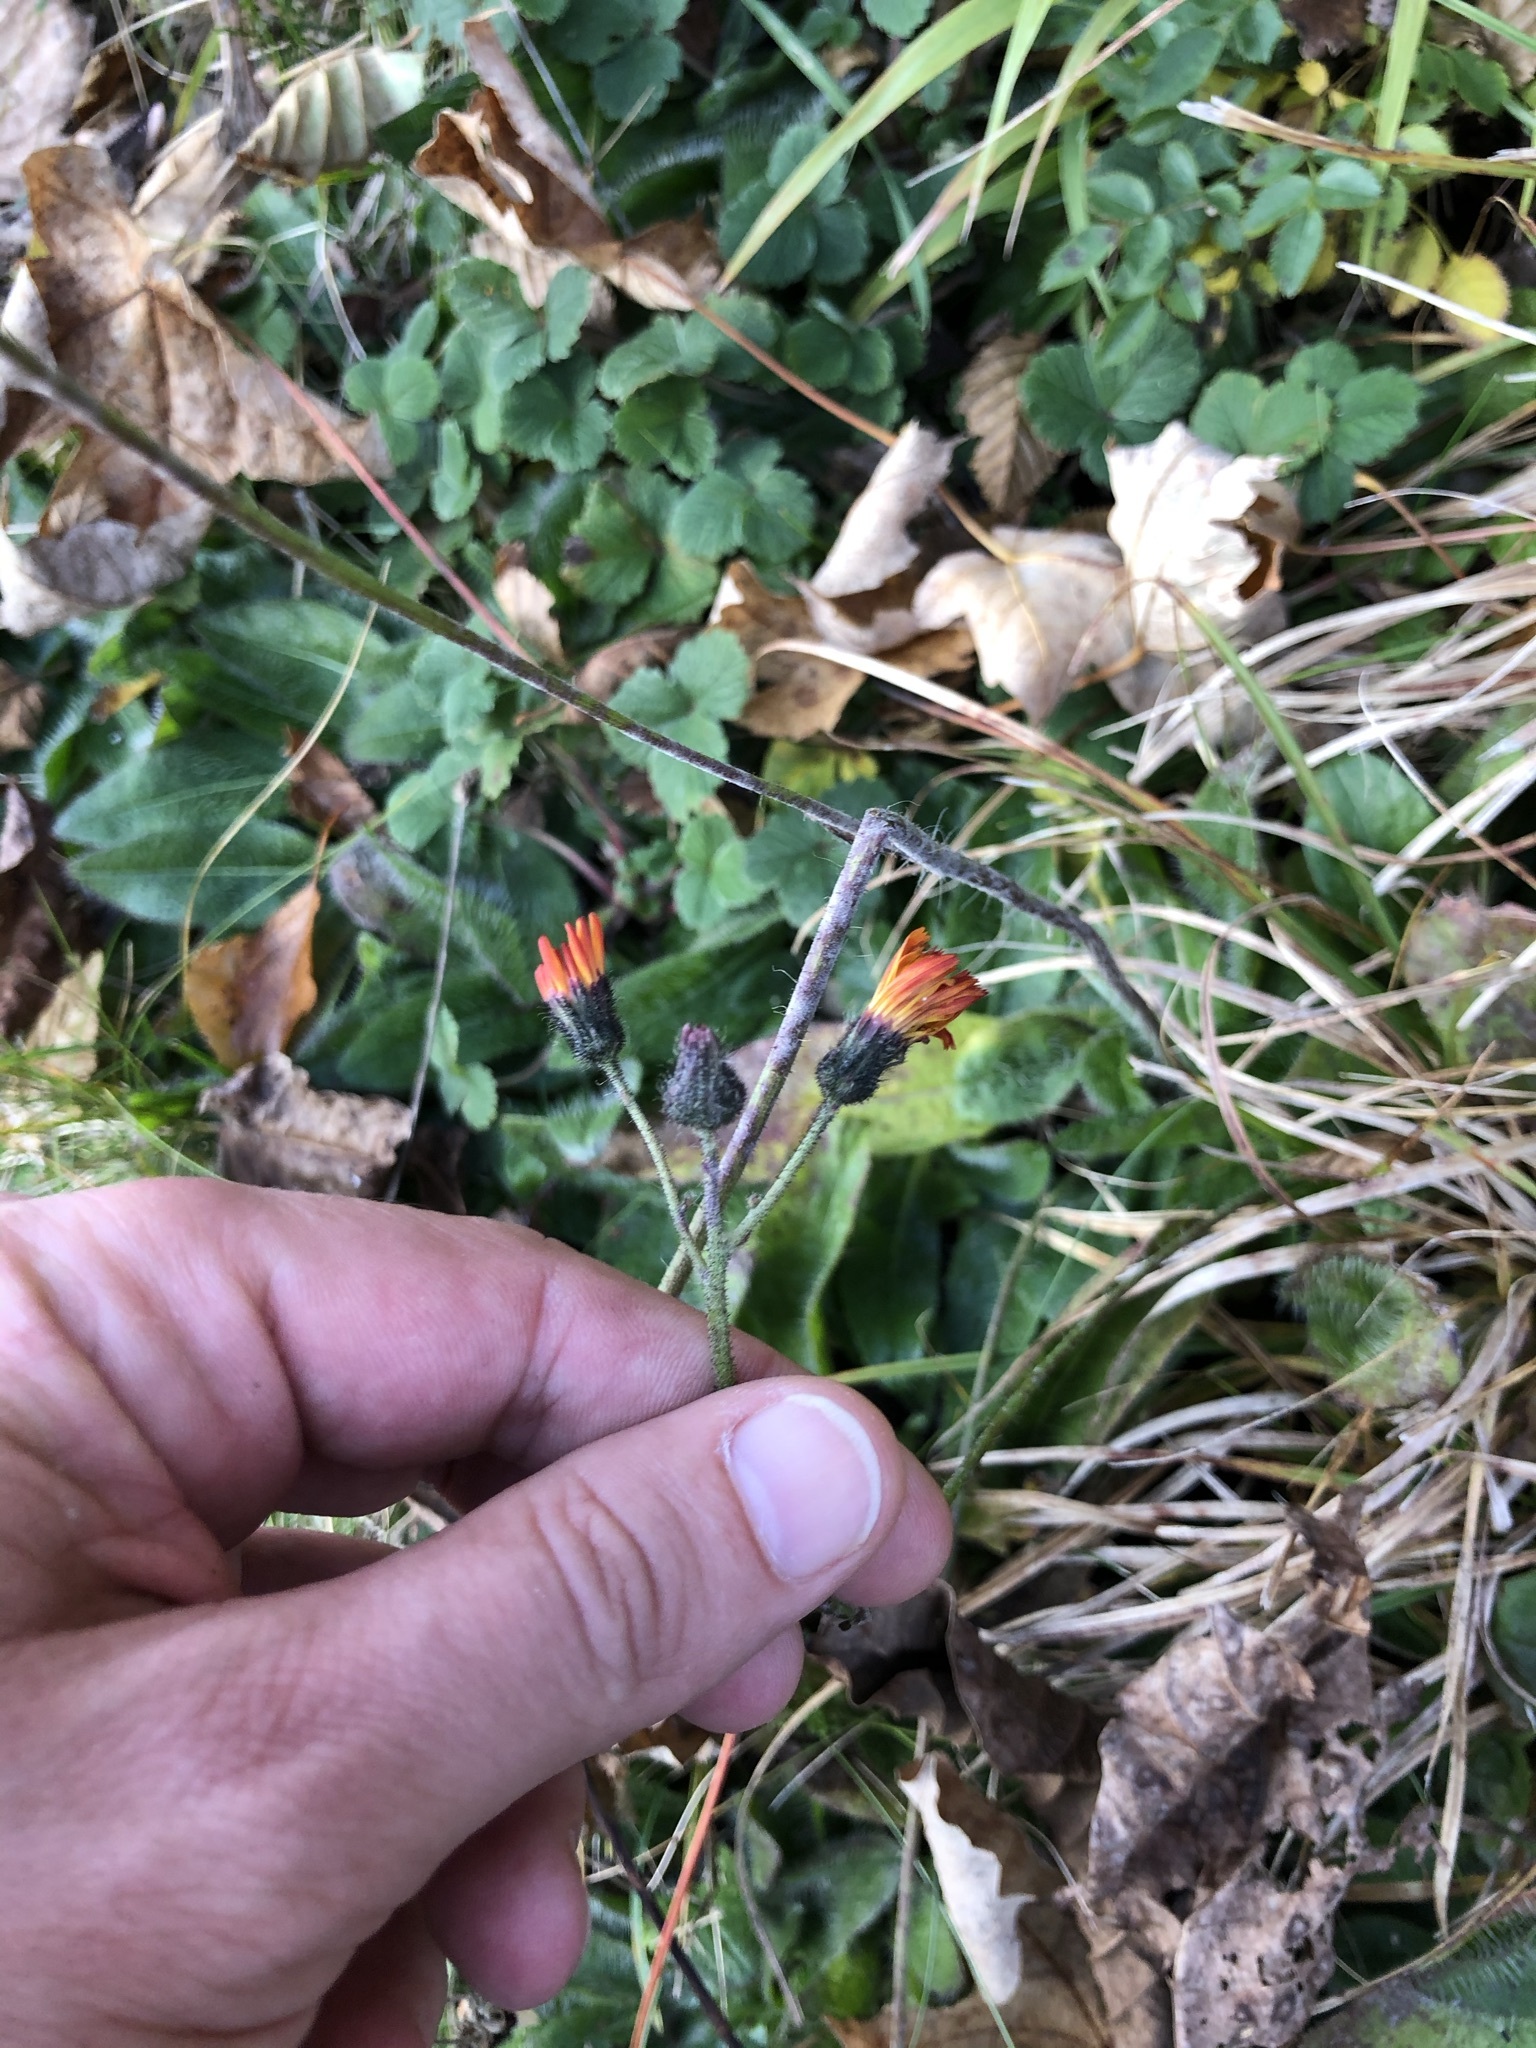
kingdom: Plantae
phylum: Tracheophyta
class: Magnoliopsida
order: Asterales
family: Asteraceae
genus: Pilosella
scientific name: Pilosella aurantiaca
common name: Fox-and-cubs
